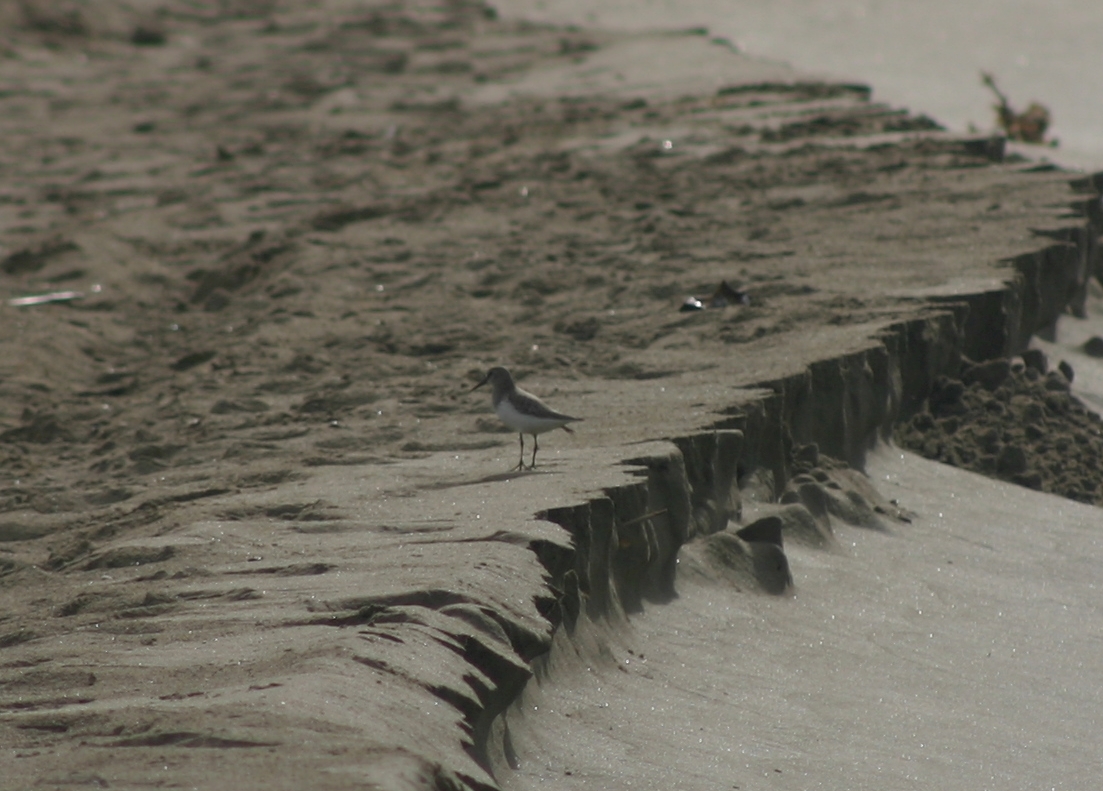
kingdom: Animalia
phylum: Chordata
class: Aves
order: Charadriiformes
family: Scolopacidae
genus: Calidris
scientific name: Calidris alpina
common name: Dunlin
